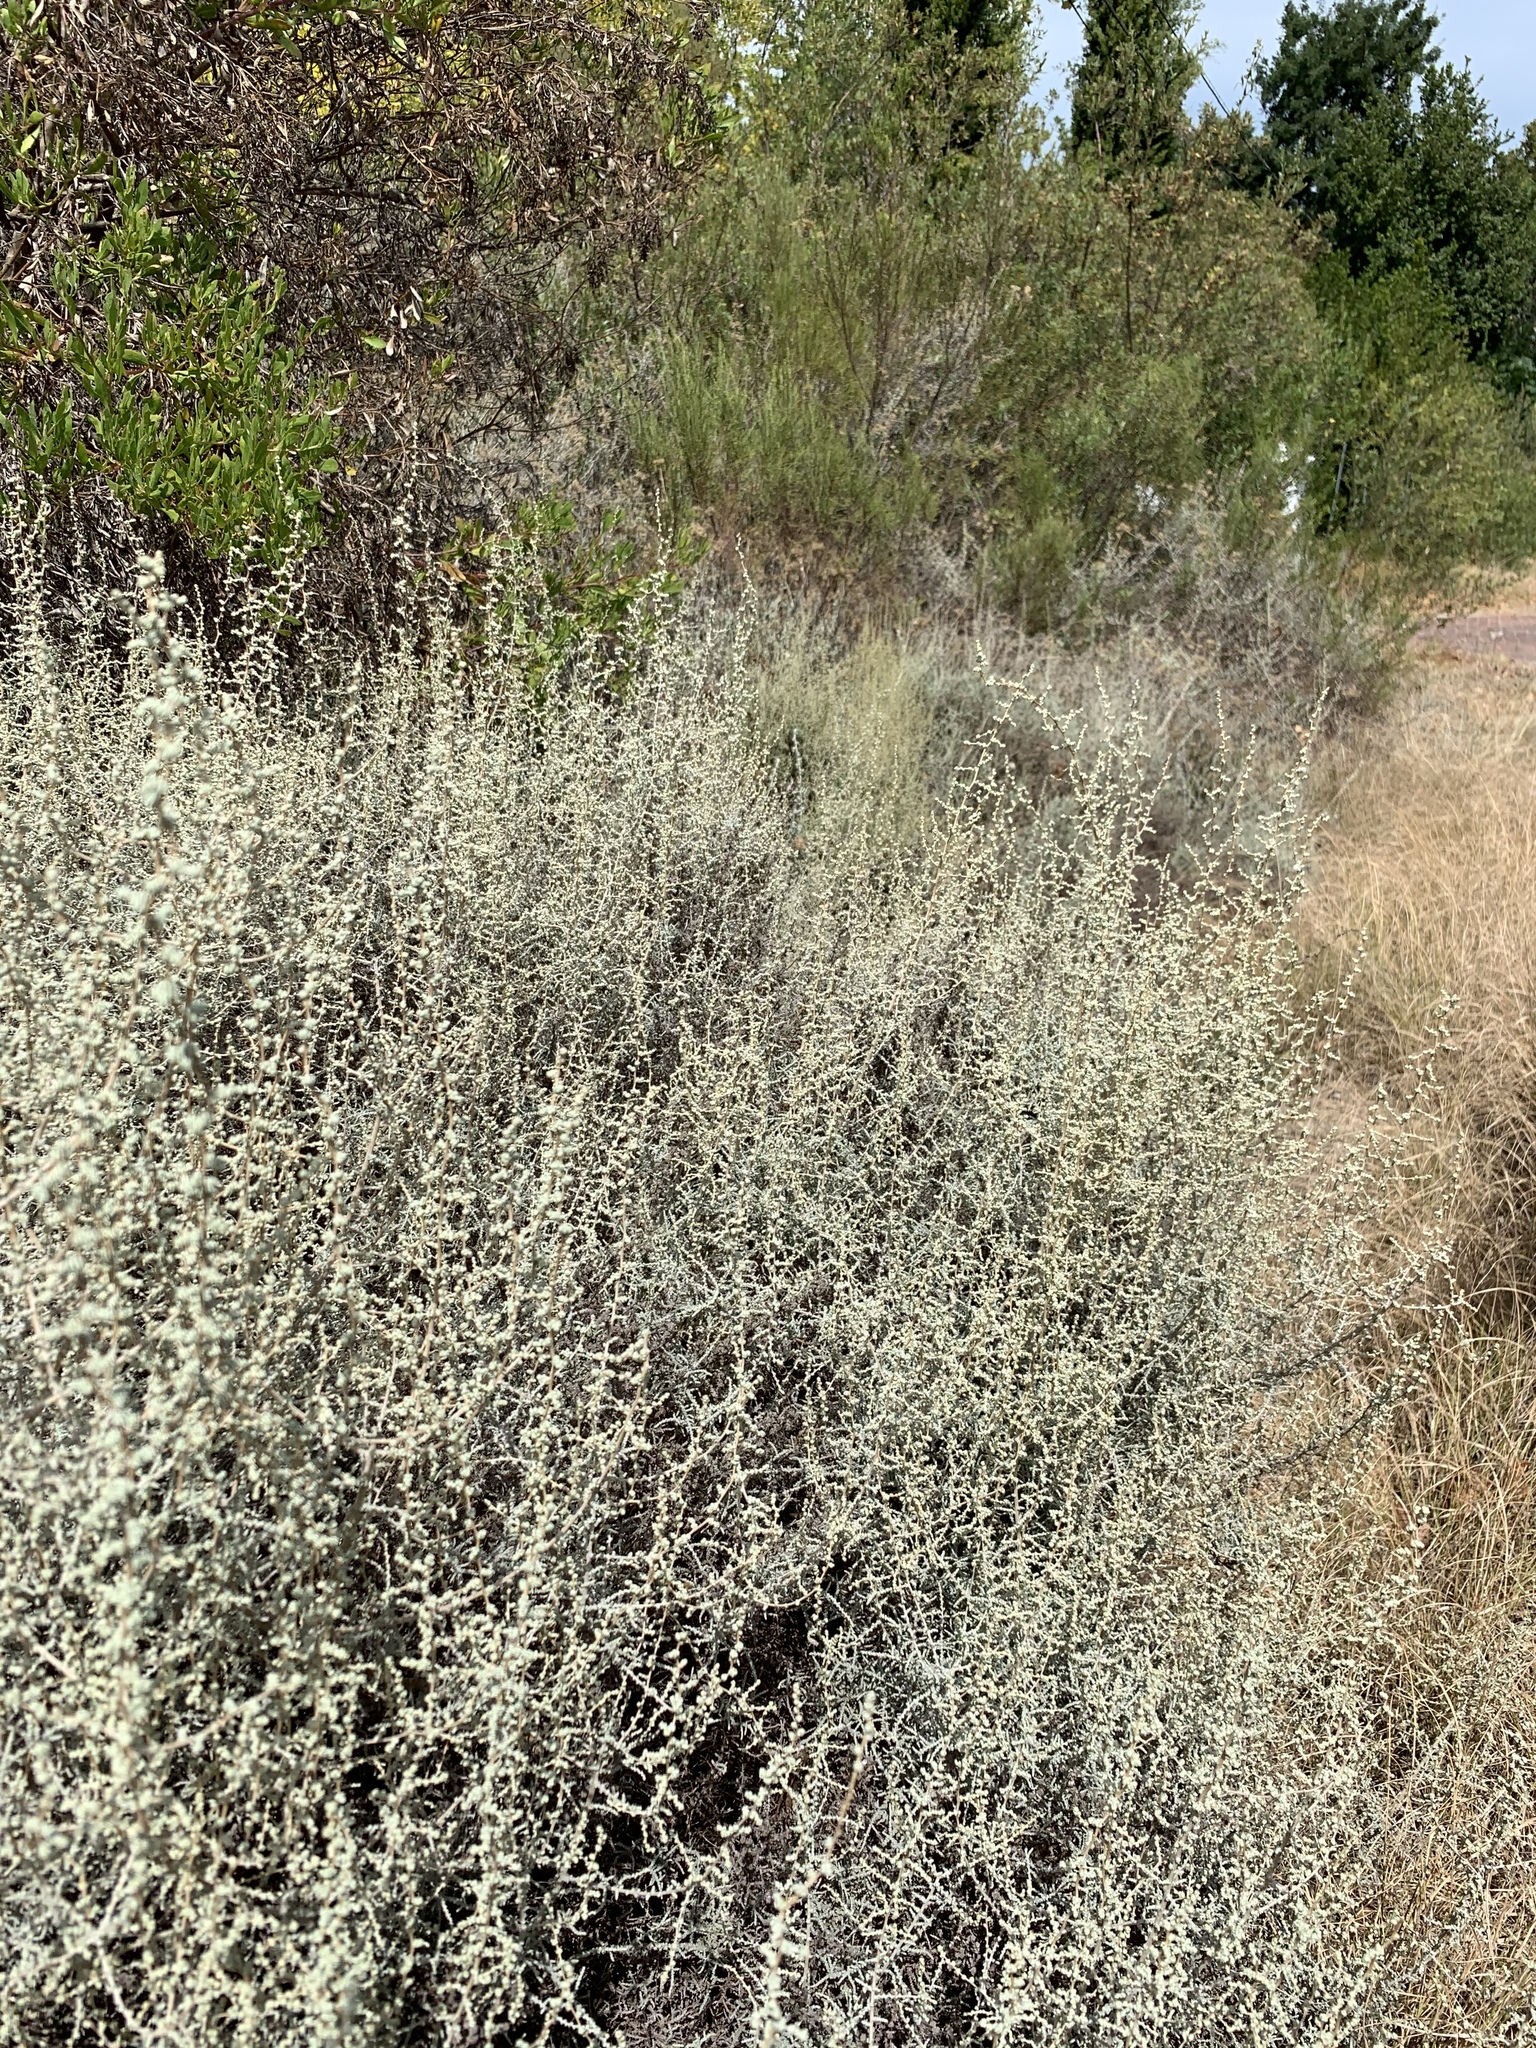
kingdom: Plantae
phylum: Tracheophyta
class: Magnoliopsida
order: Asterales
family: Asteraceae
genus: Seriphium
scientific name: Seriphium plumosum
